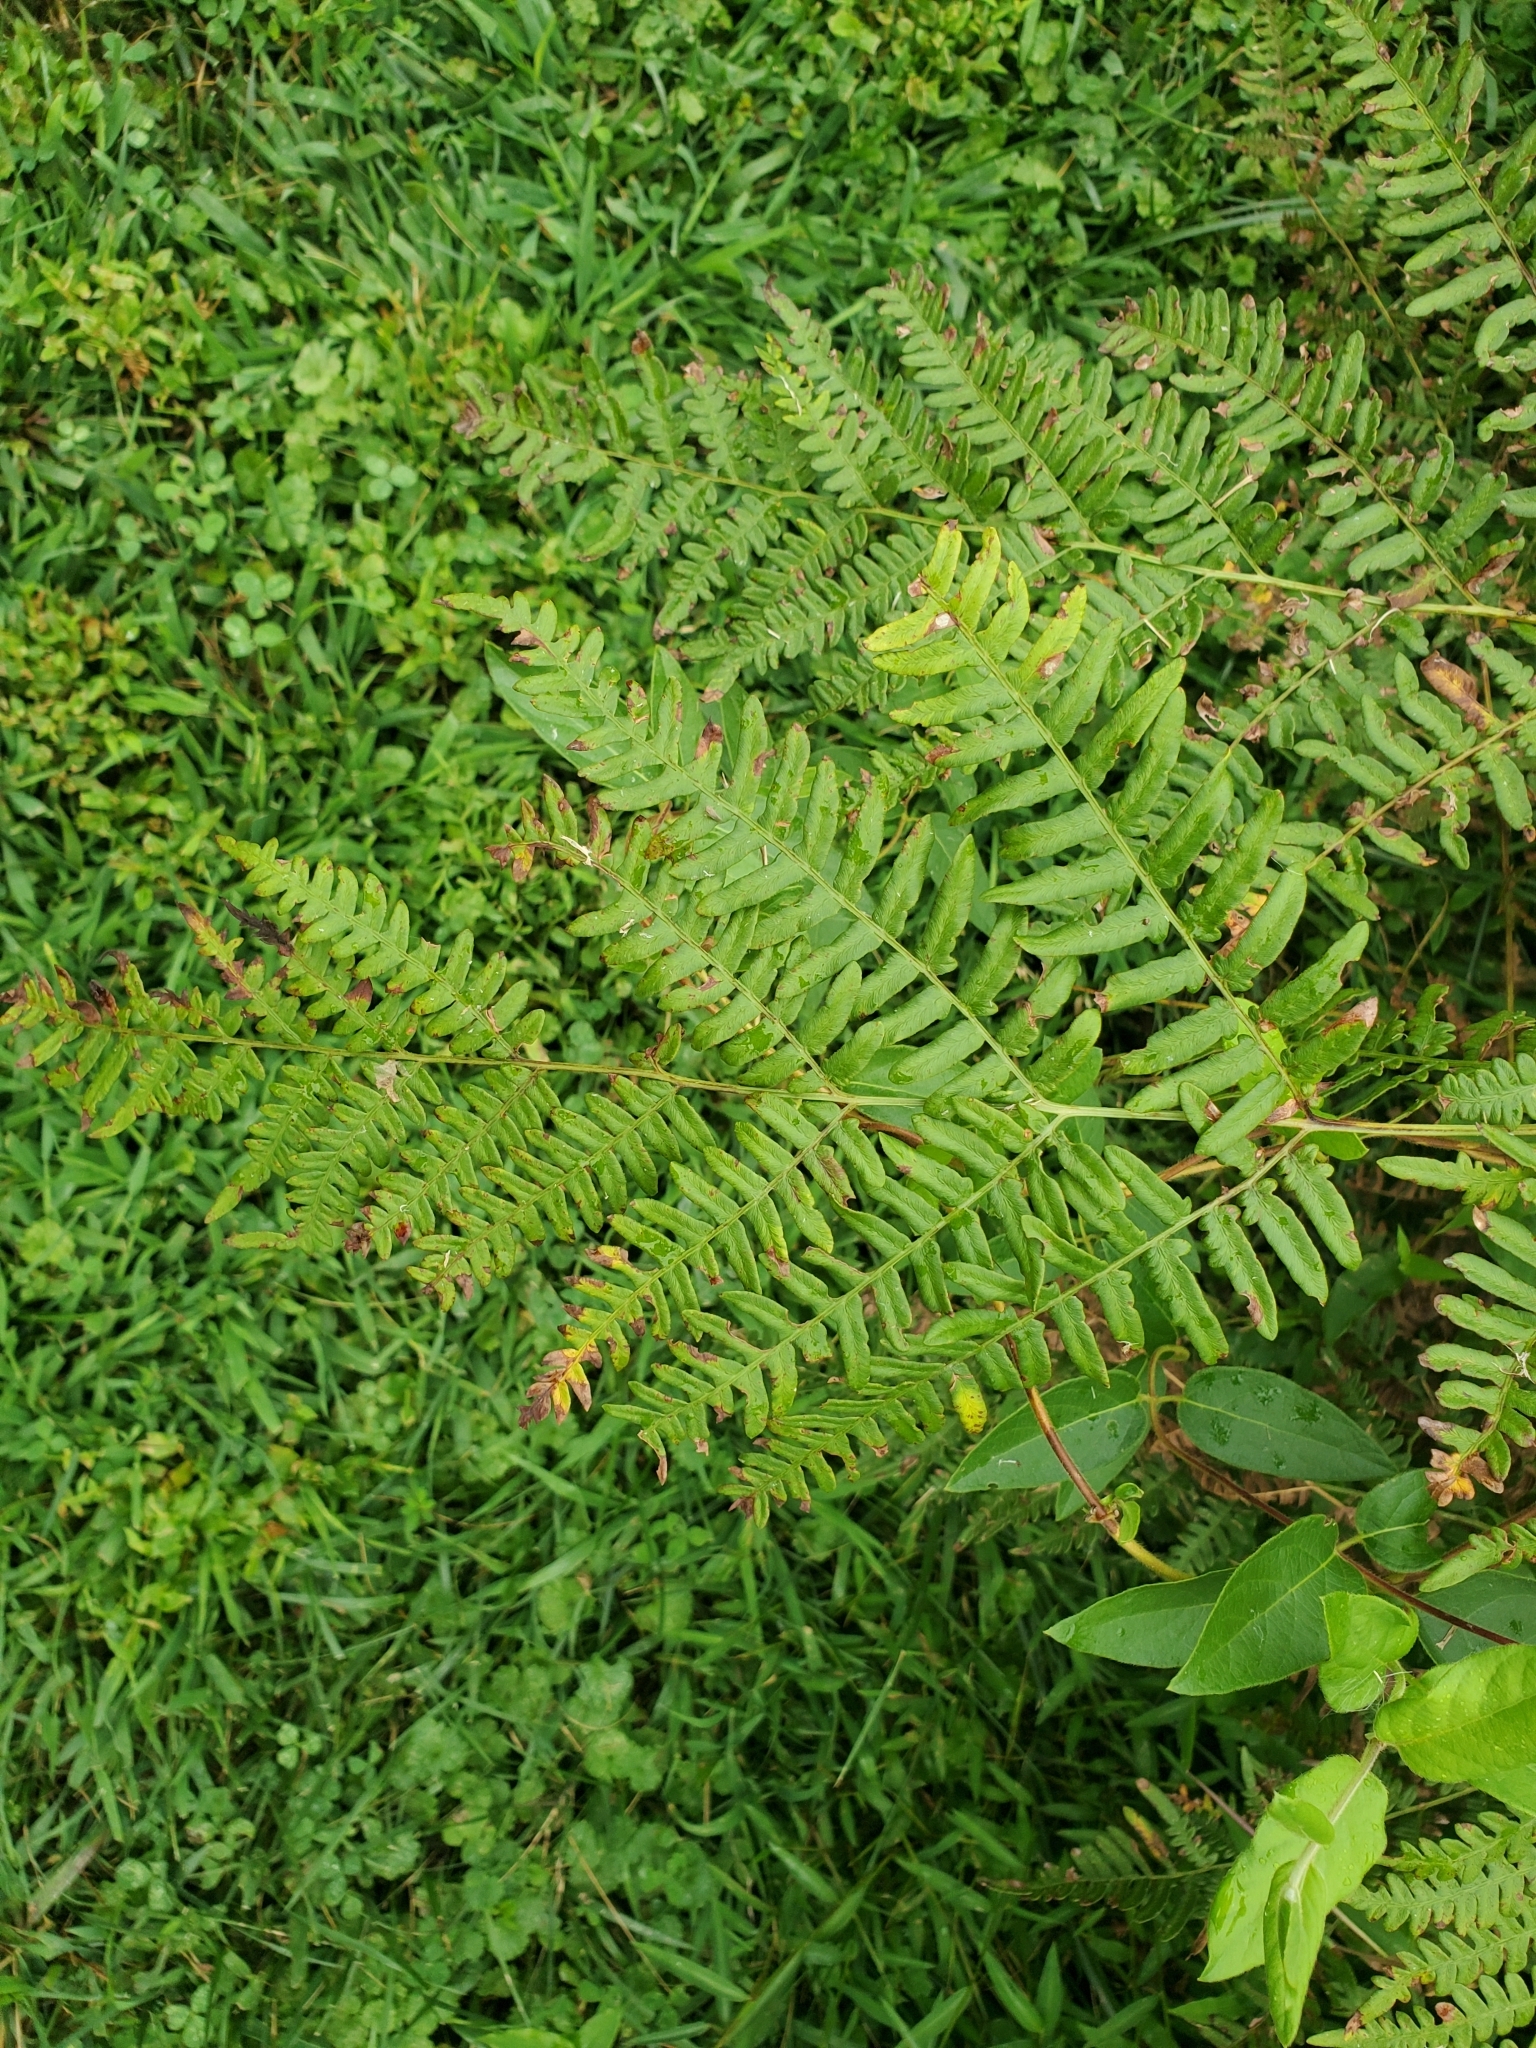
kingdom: Plantae
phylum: Tracheophyta
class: Polypodiopsida
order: Polypodiales
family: Dennstaedtiaceae
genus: Pteridium
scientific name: Pteridium aquilinum
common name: Bracken
